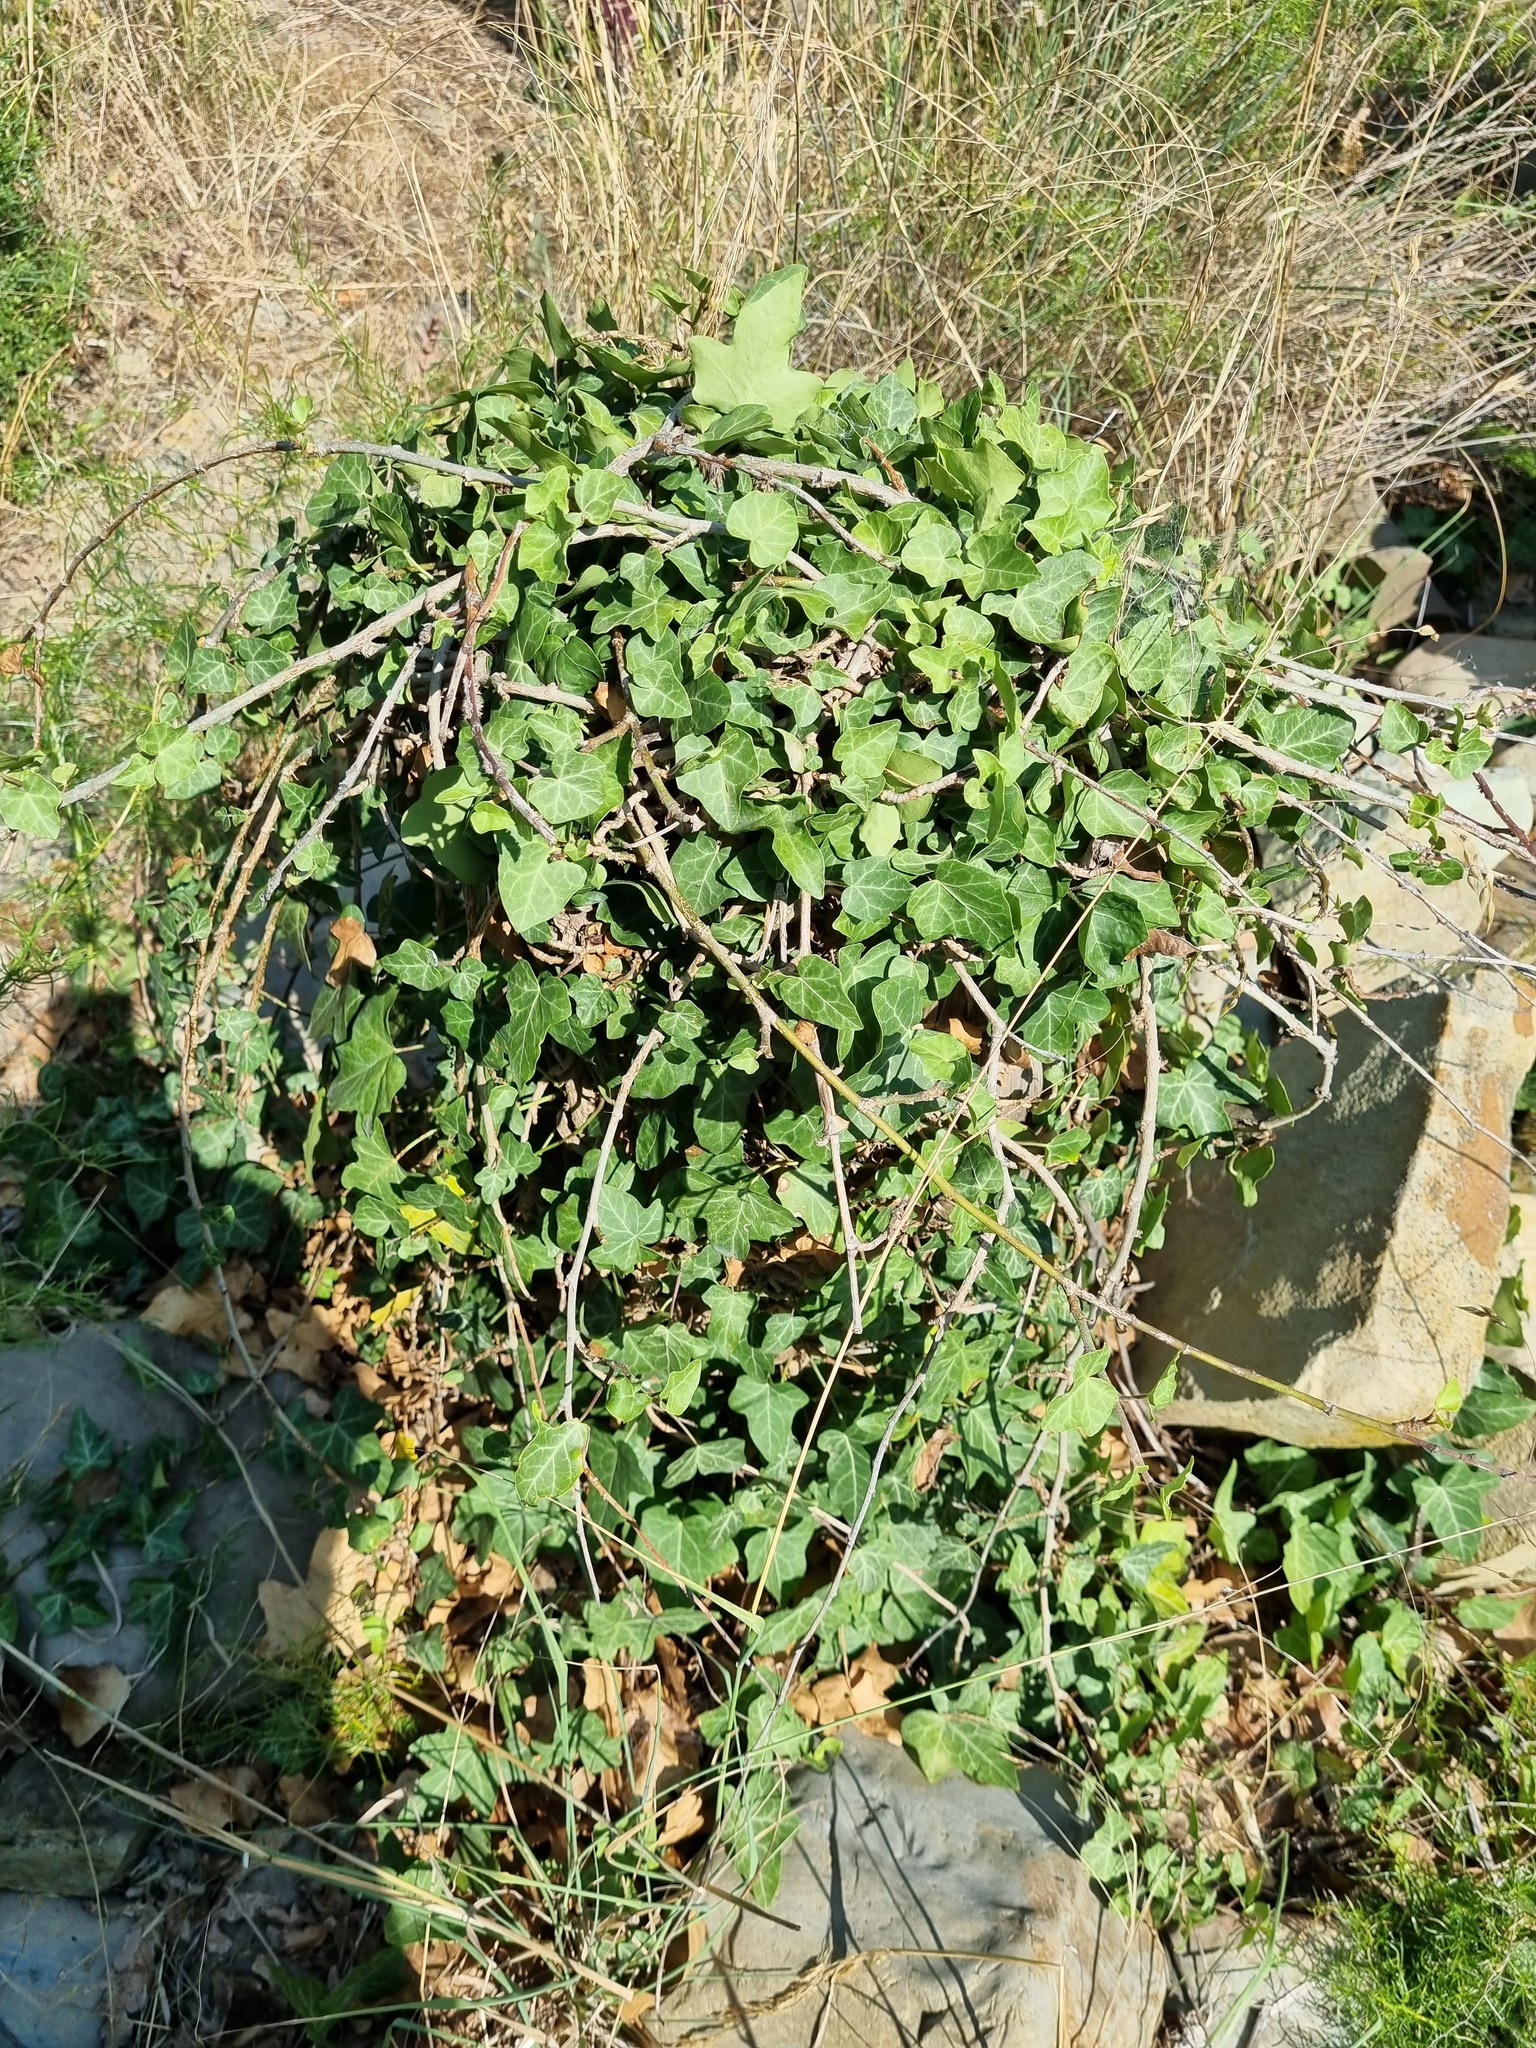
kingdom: Plantae
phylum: Tracheophyta
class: Magnoliopsida
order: Apiales
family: Araliaceae
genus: Hedera
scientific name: Hedera helix
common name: Ivy
